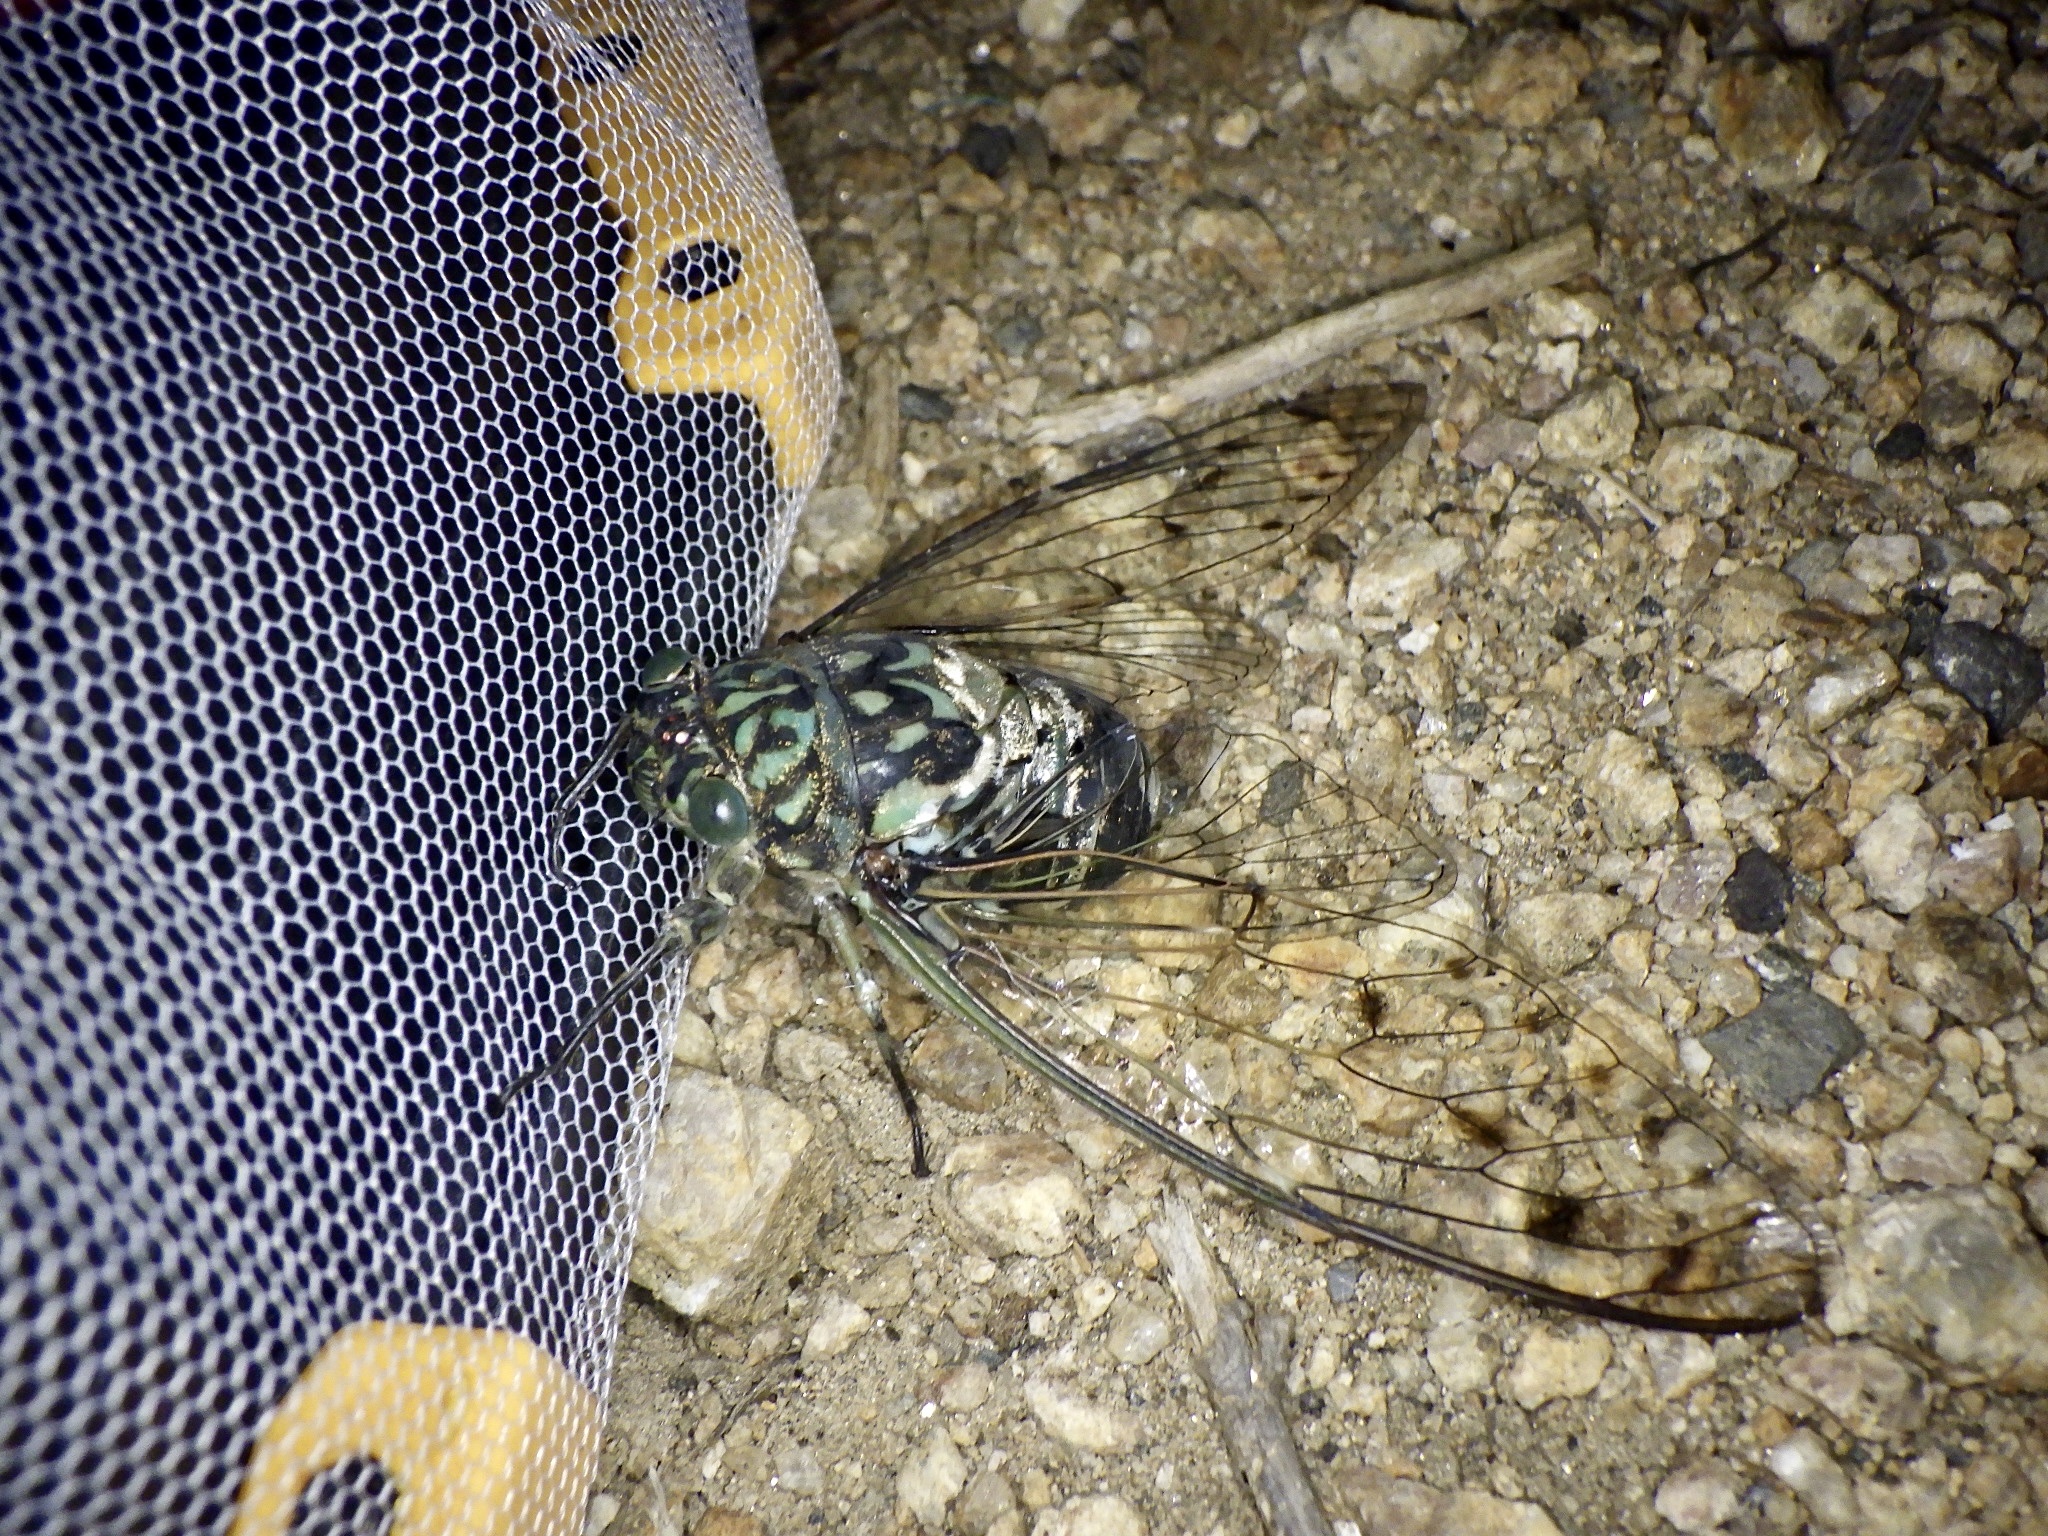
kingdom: Animalia
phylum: Arthropoda
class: Insecta
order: Hemiptera
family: Cicadidae
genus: Hyalessa
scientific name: Hyalessa maculaticollis
